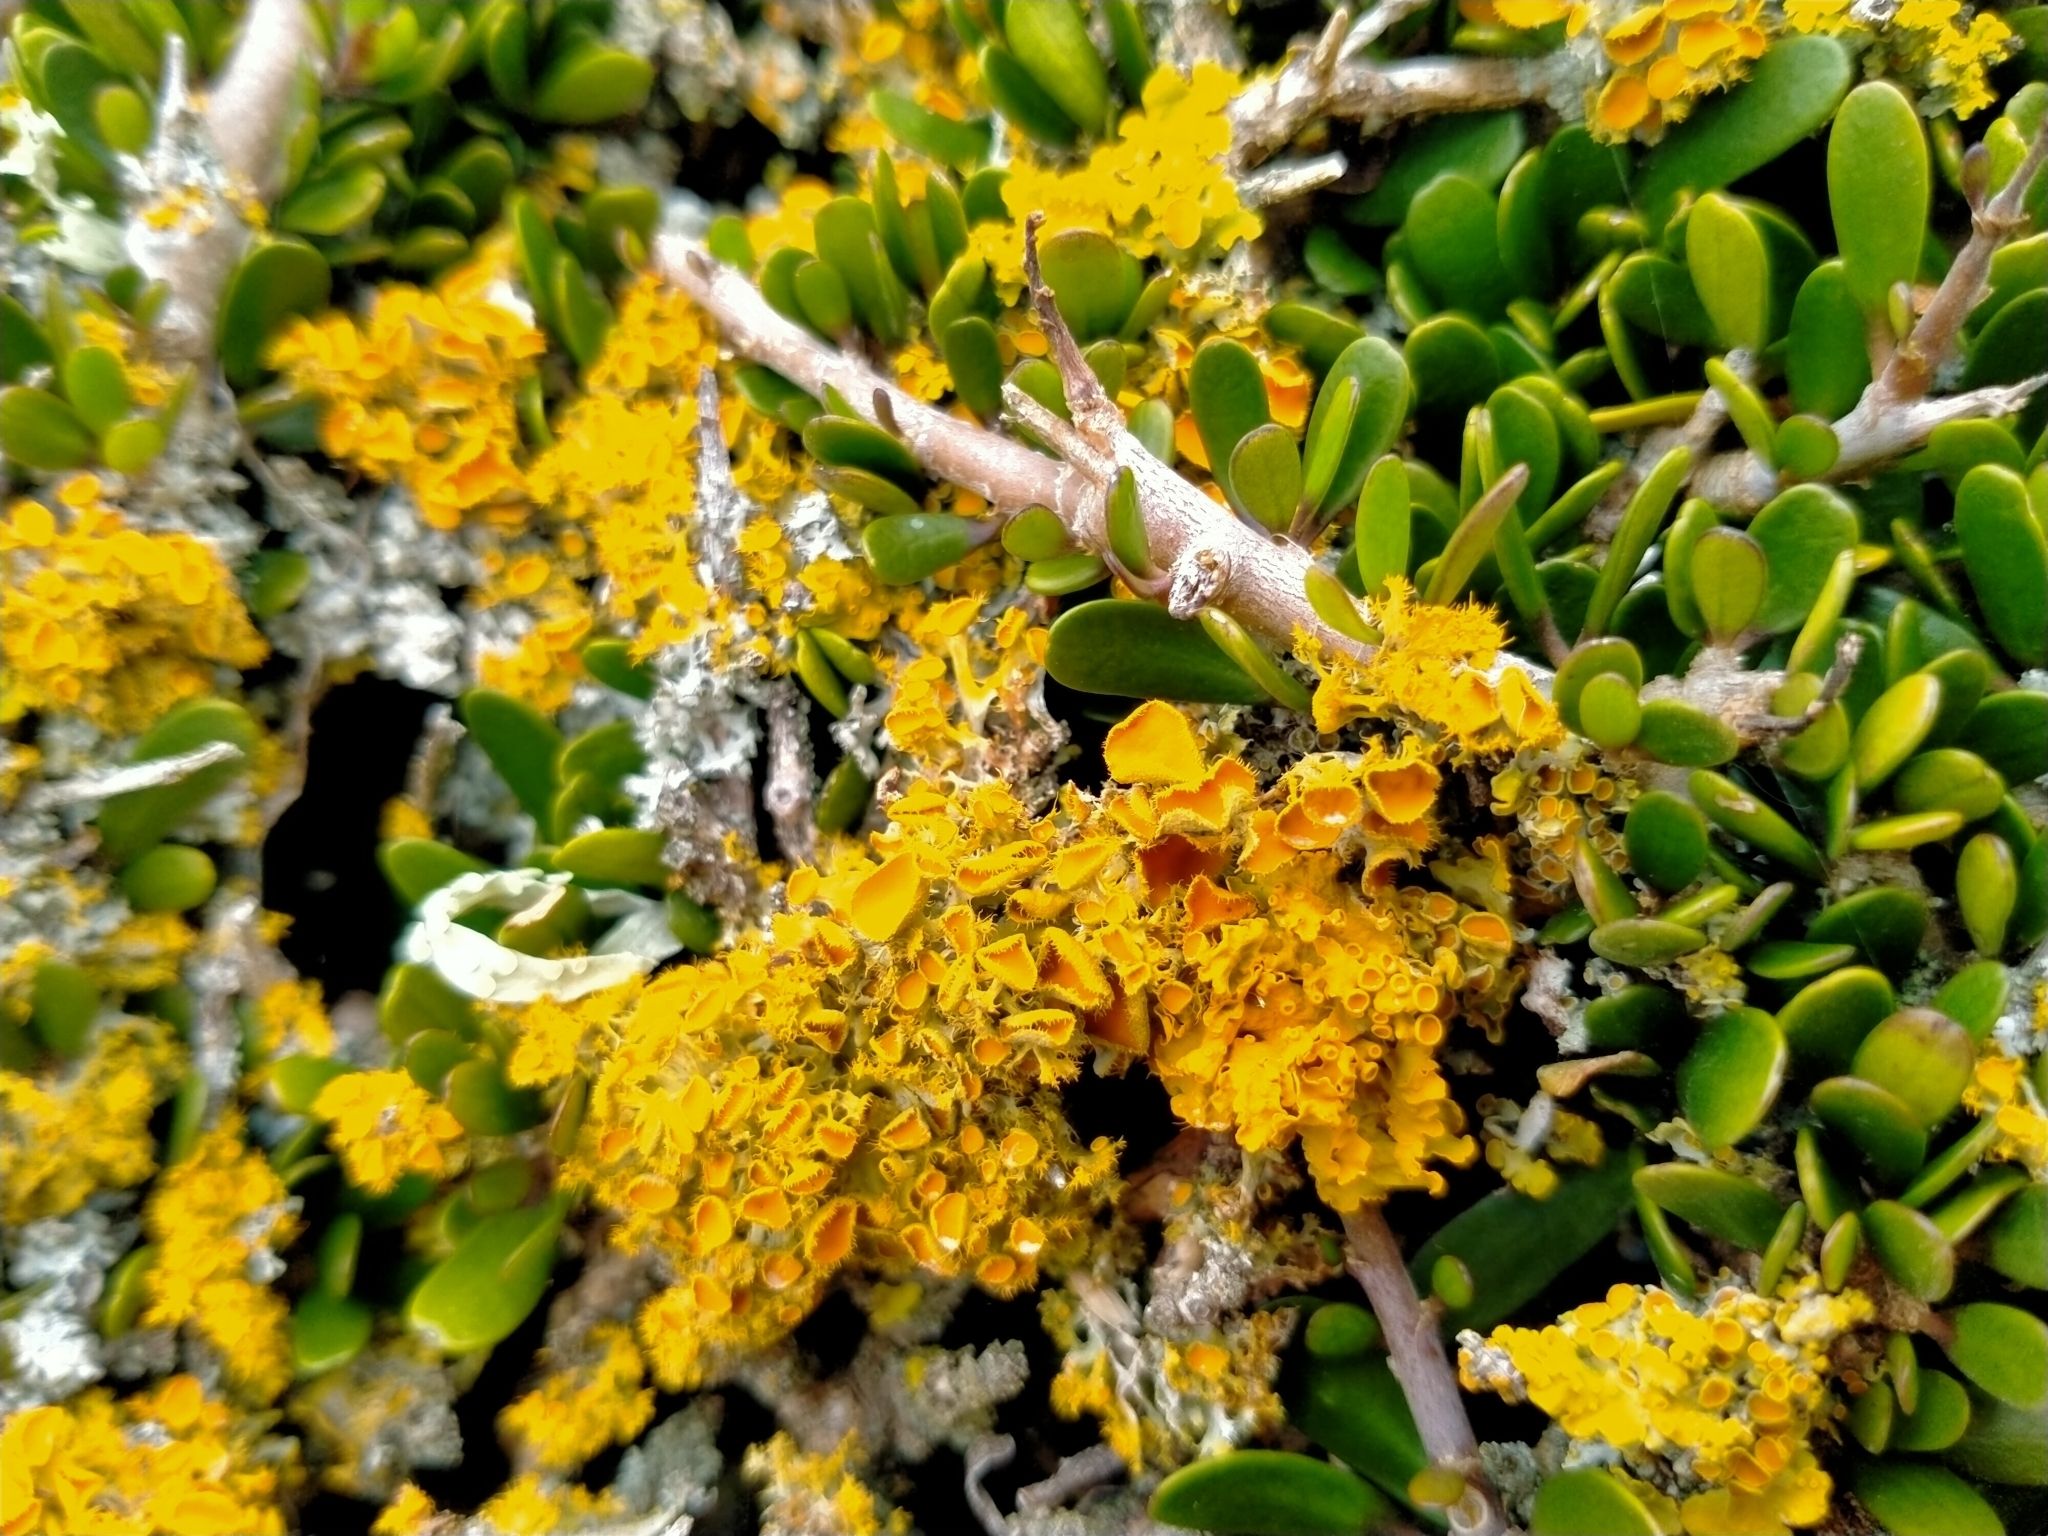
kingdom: Fungi
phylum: Ascomycota
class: Lecanoromycetes
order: Teloschistales
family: Teloschistaceae
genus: Niorma
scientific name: Niorma chrysophthalma
